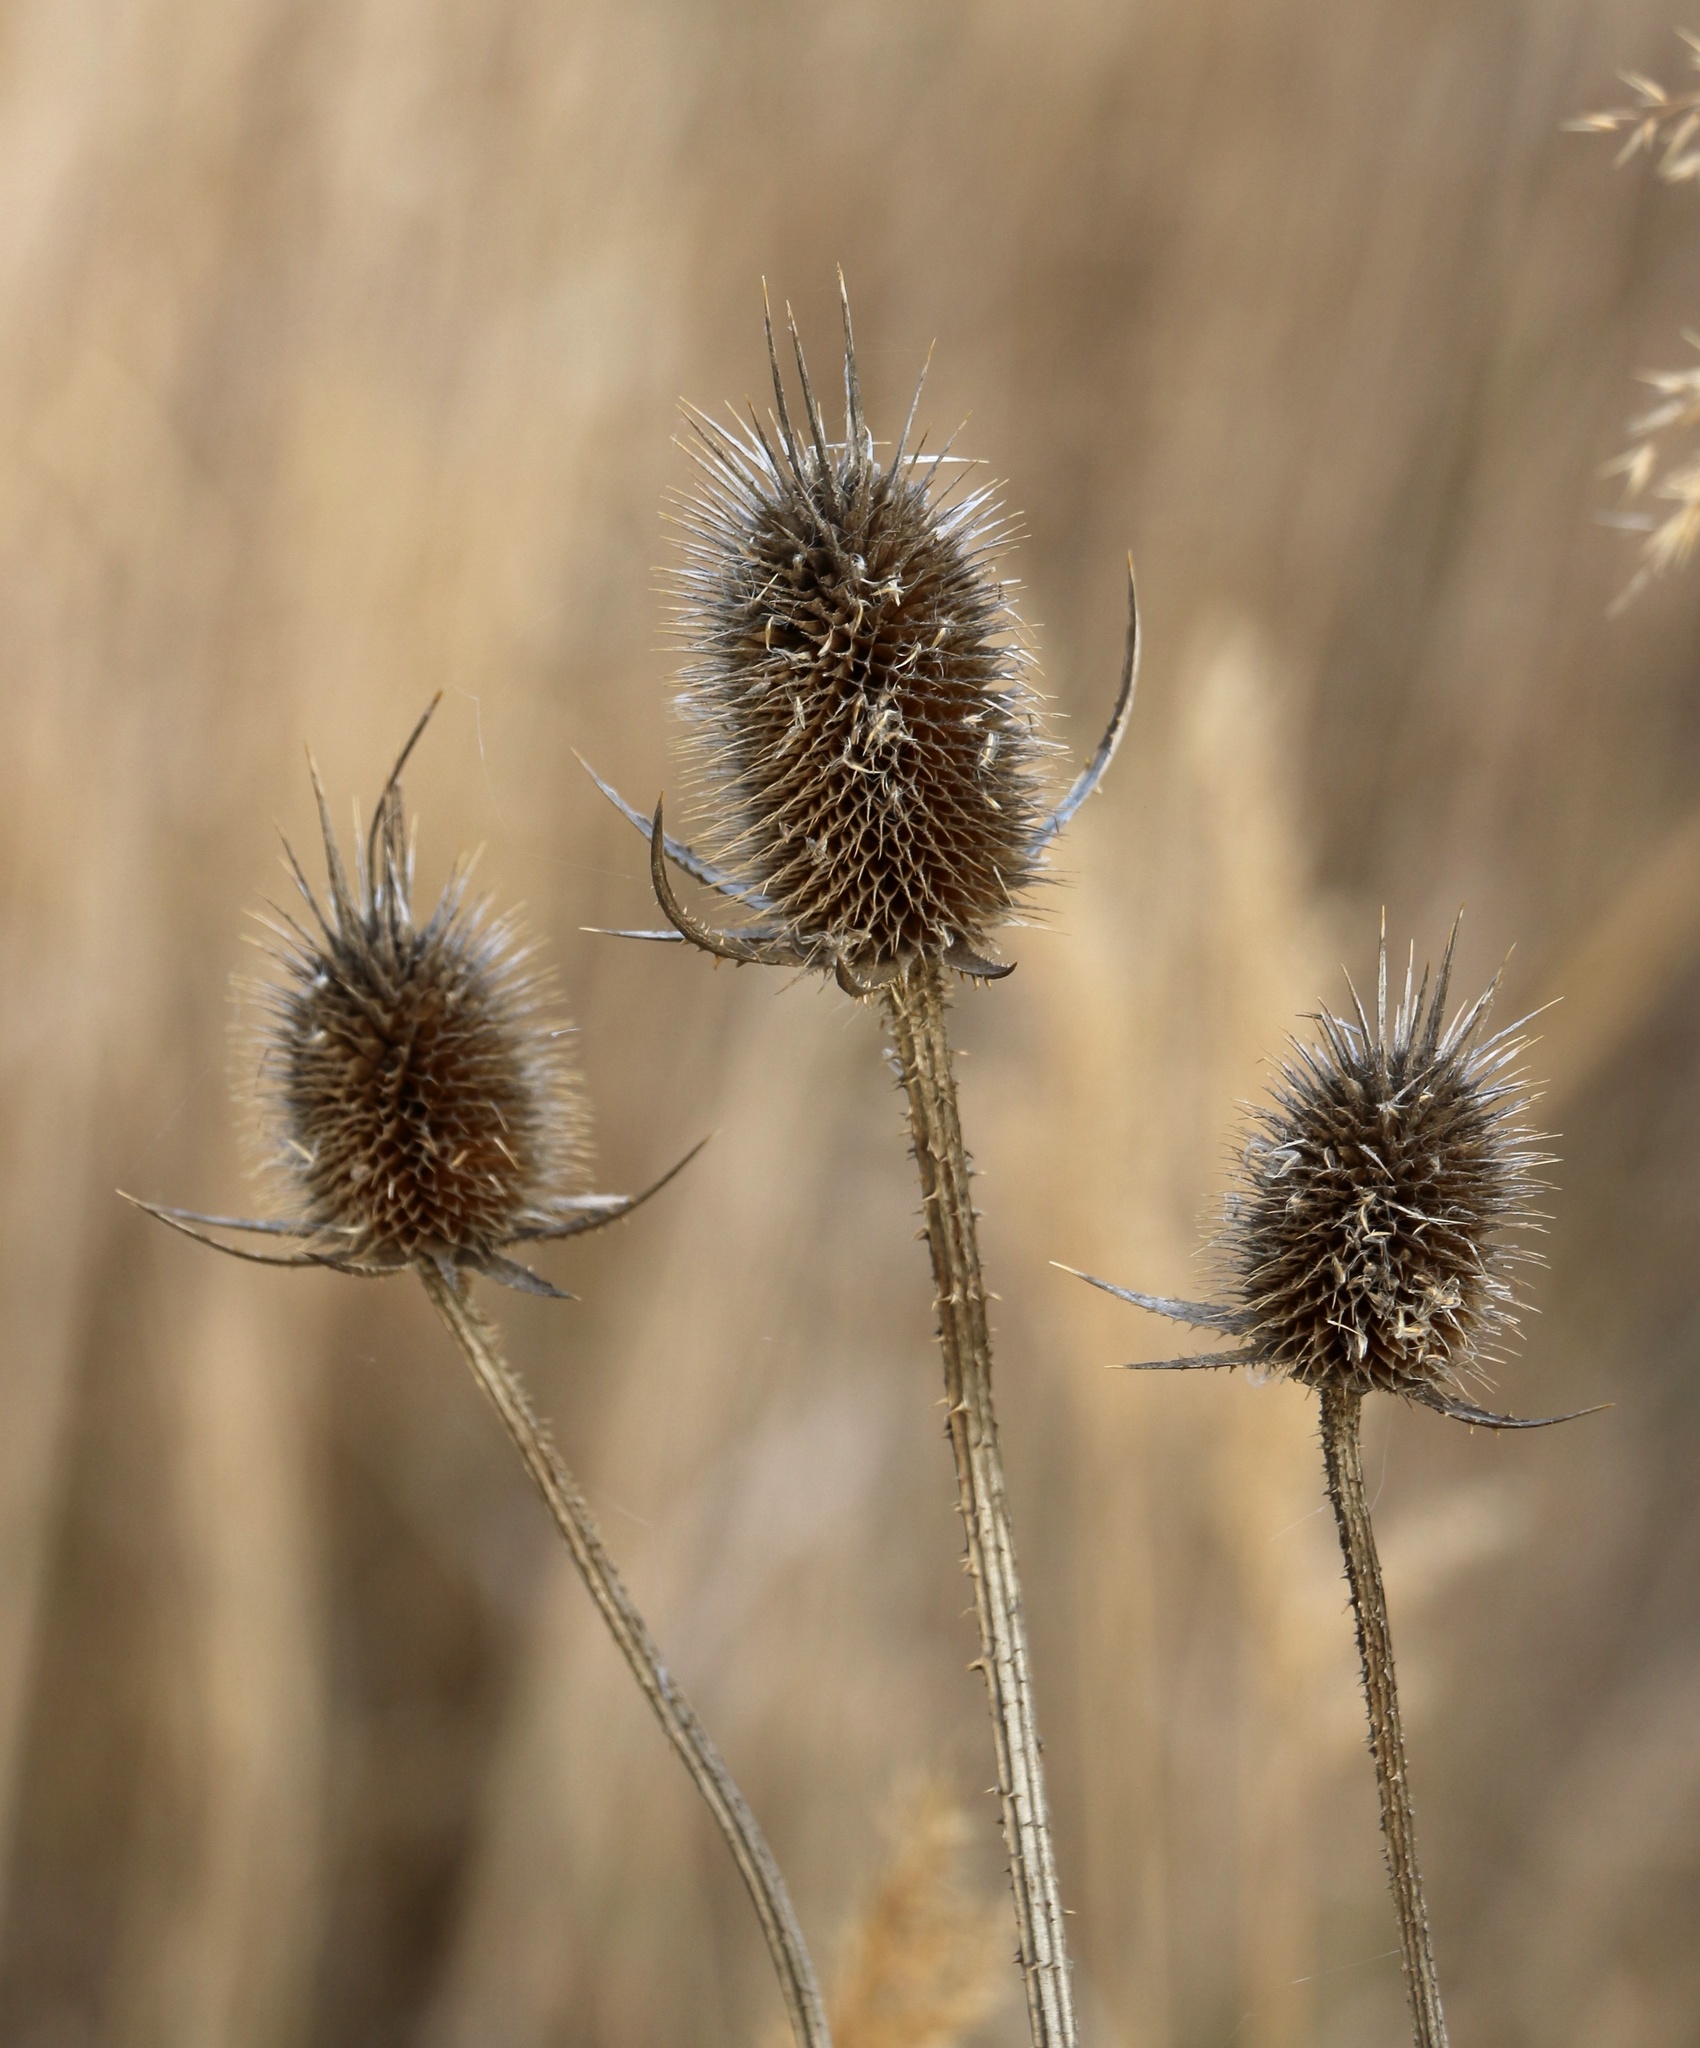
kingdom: Plantae
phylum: Tracheophyta
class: Magnoliopsida
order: Dipsacales
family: Caprifoliaceae
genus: Dipsacus
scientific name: Dipsacus laciniatus
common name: Cut-leaved teasel
